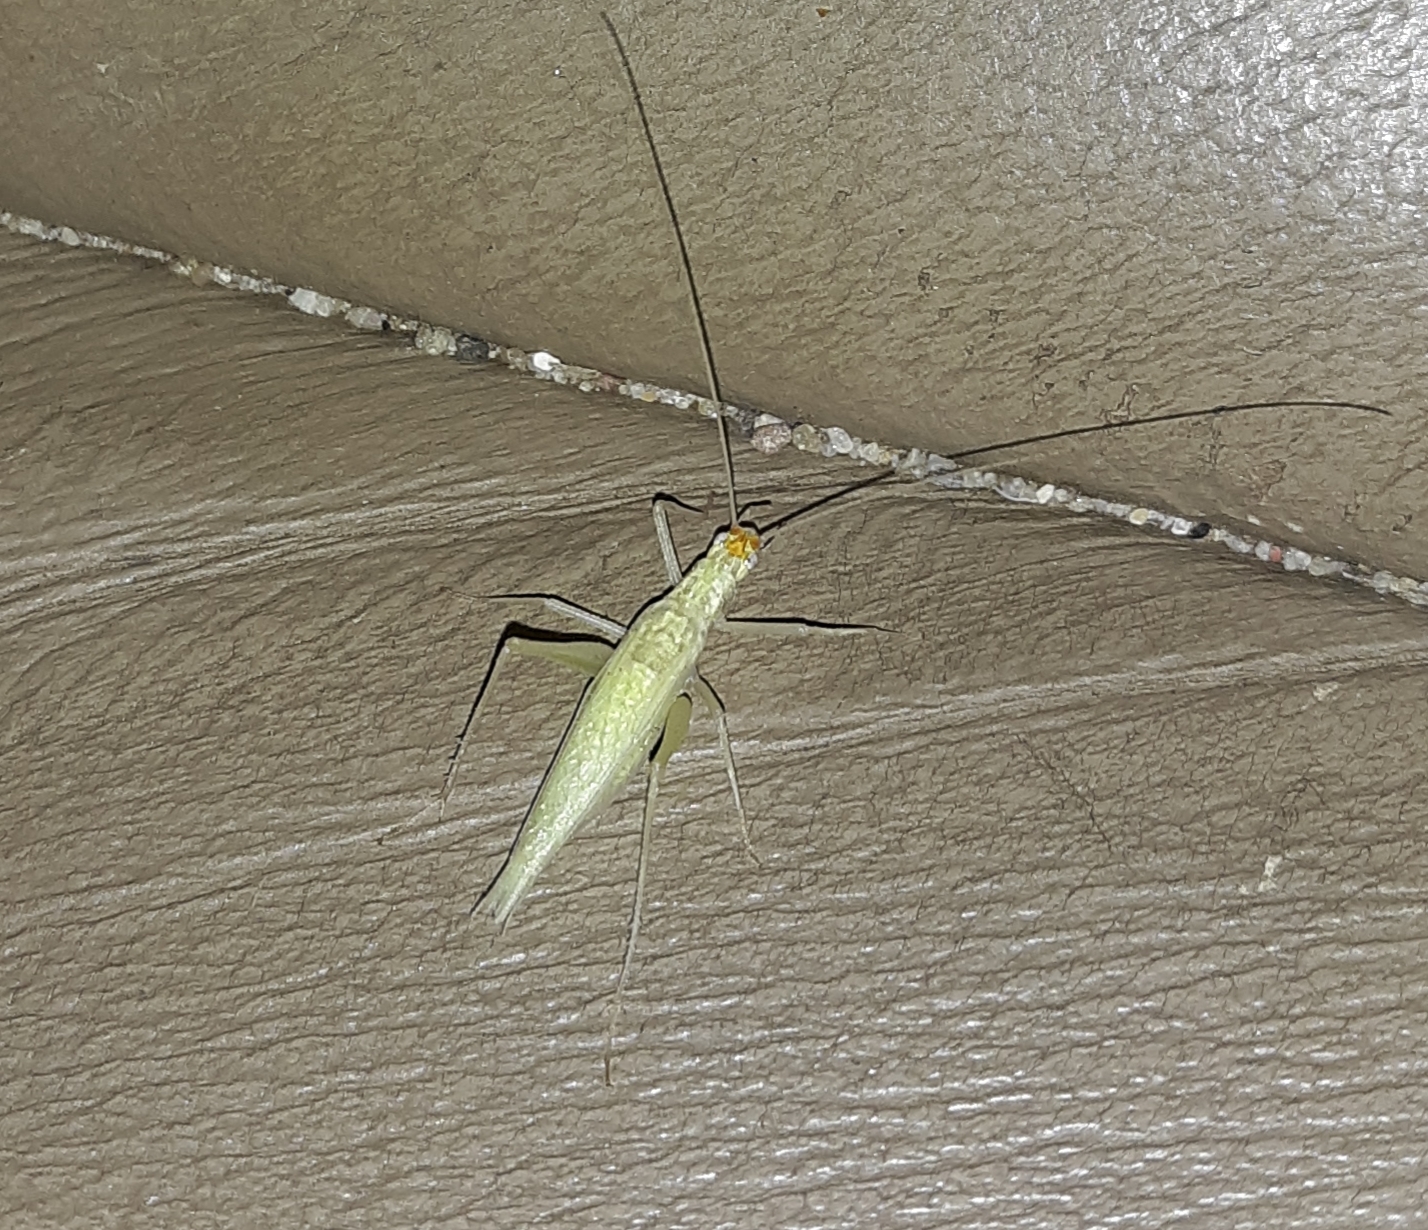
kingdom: Animalia
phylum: Arthropoda
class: Insecta
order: Orthoptera
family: Gryllidae
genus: Oecanthus
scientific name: Oecanthus fultoni
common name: Snowy tree cricket
